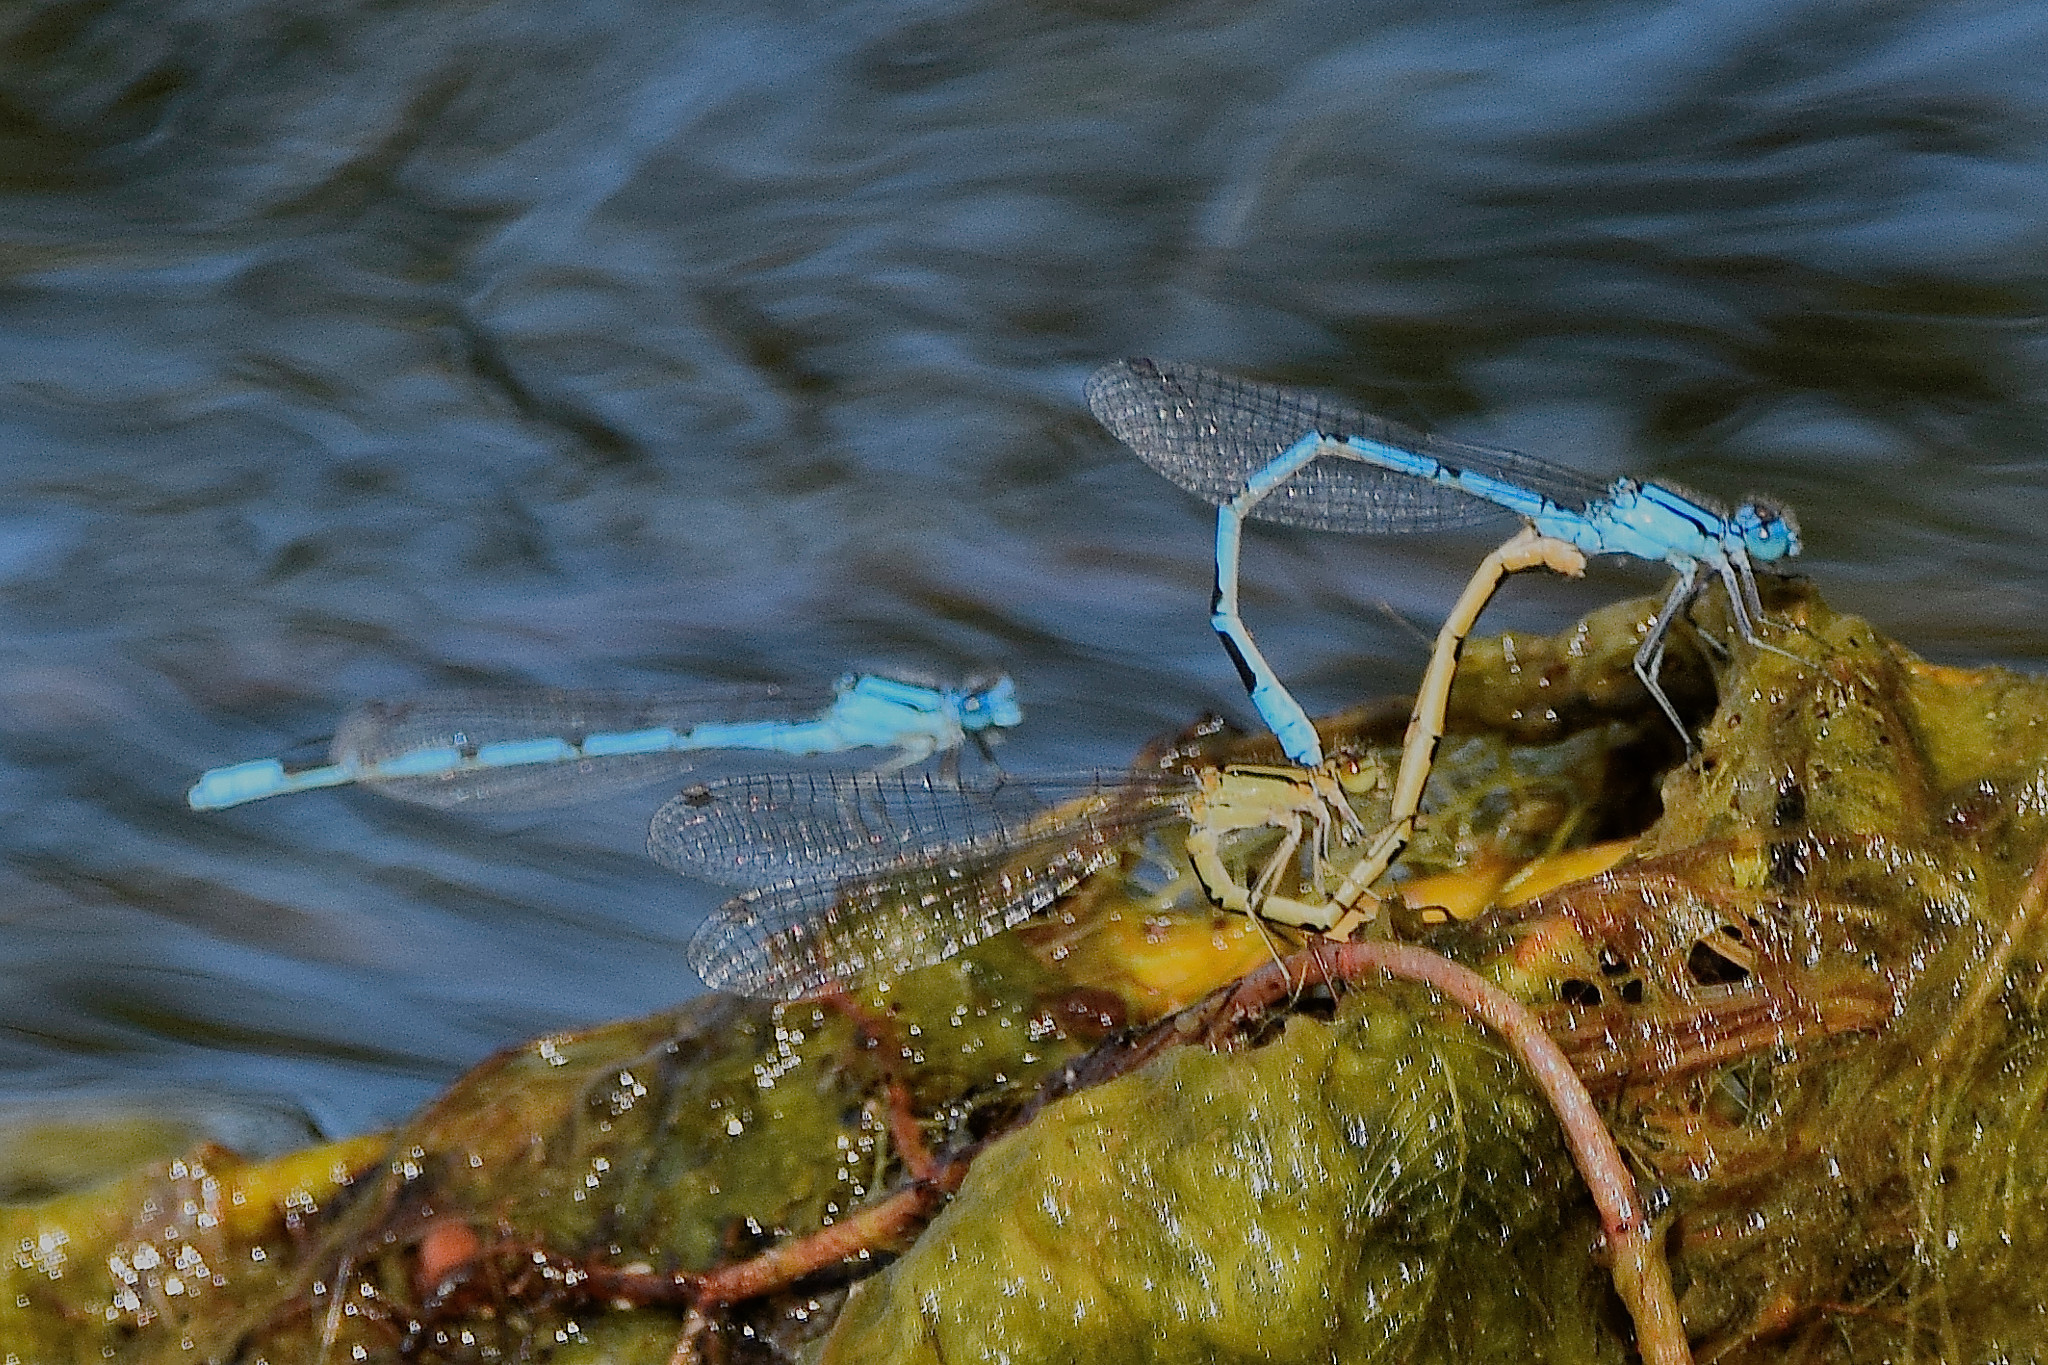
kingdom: Animalia
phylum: Arthropoda
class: Insecta
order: Odonata
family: Coenagrionidae
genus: Enallagma
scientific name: Enallagma cyathigerum
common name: Common blue damselfly
